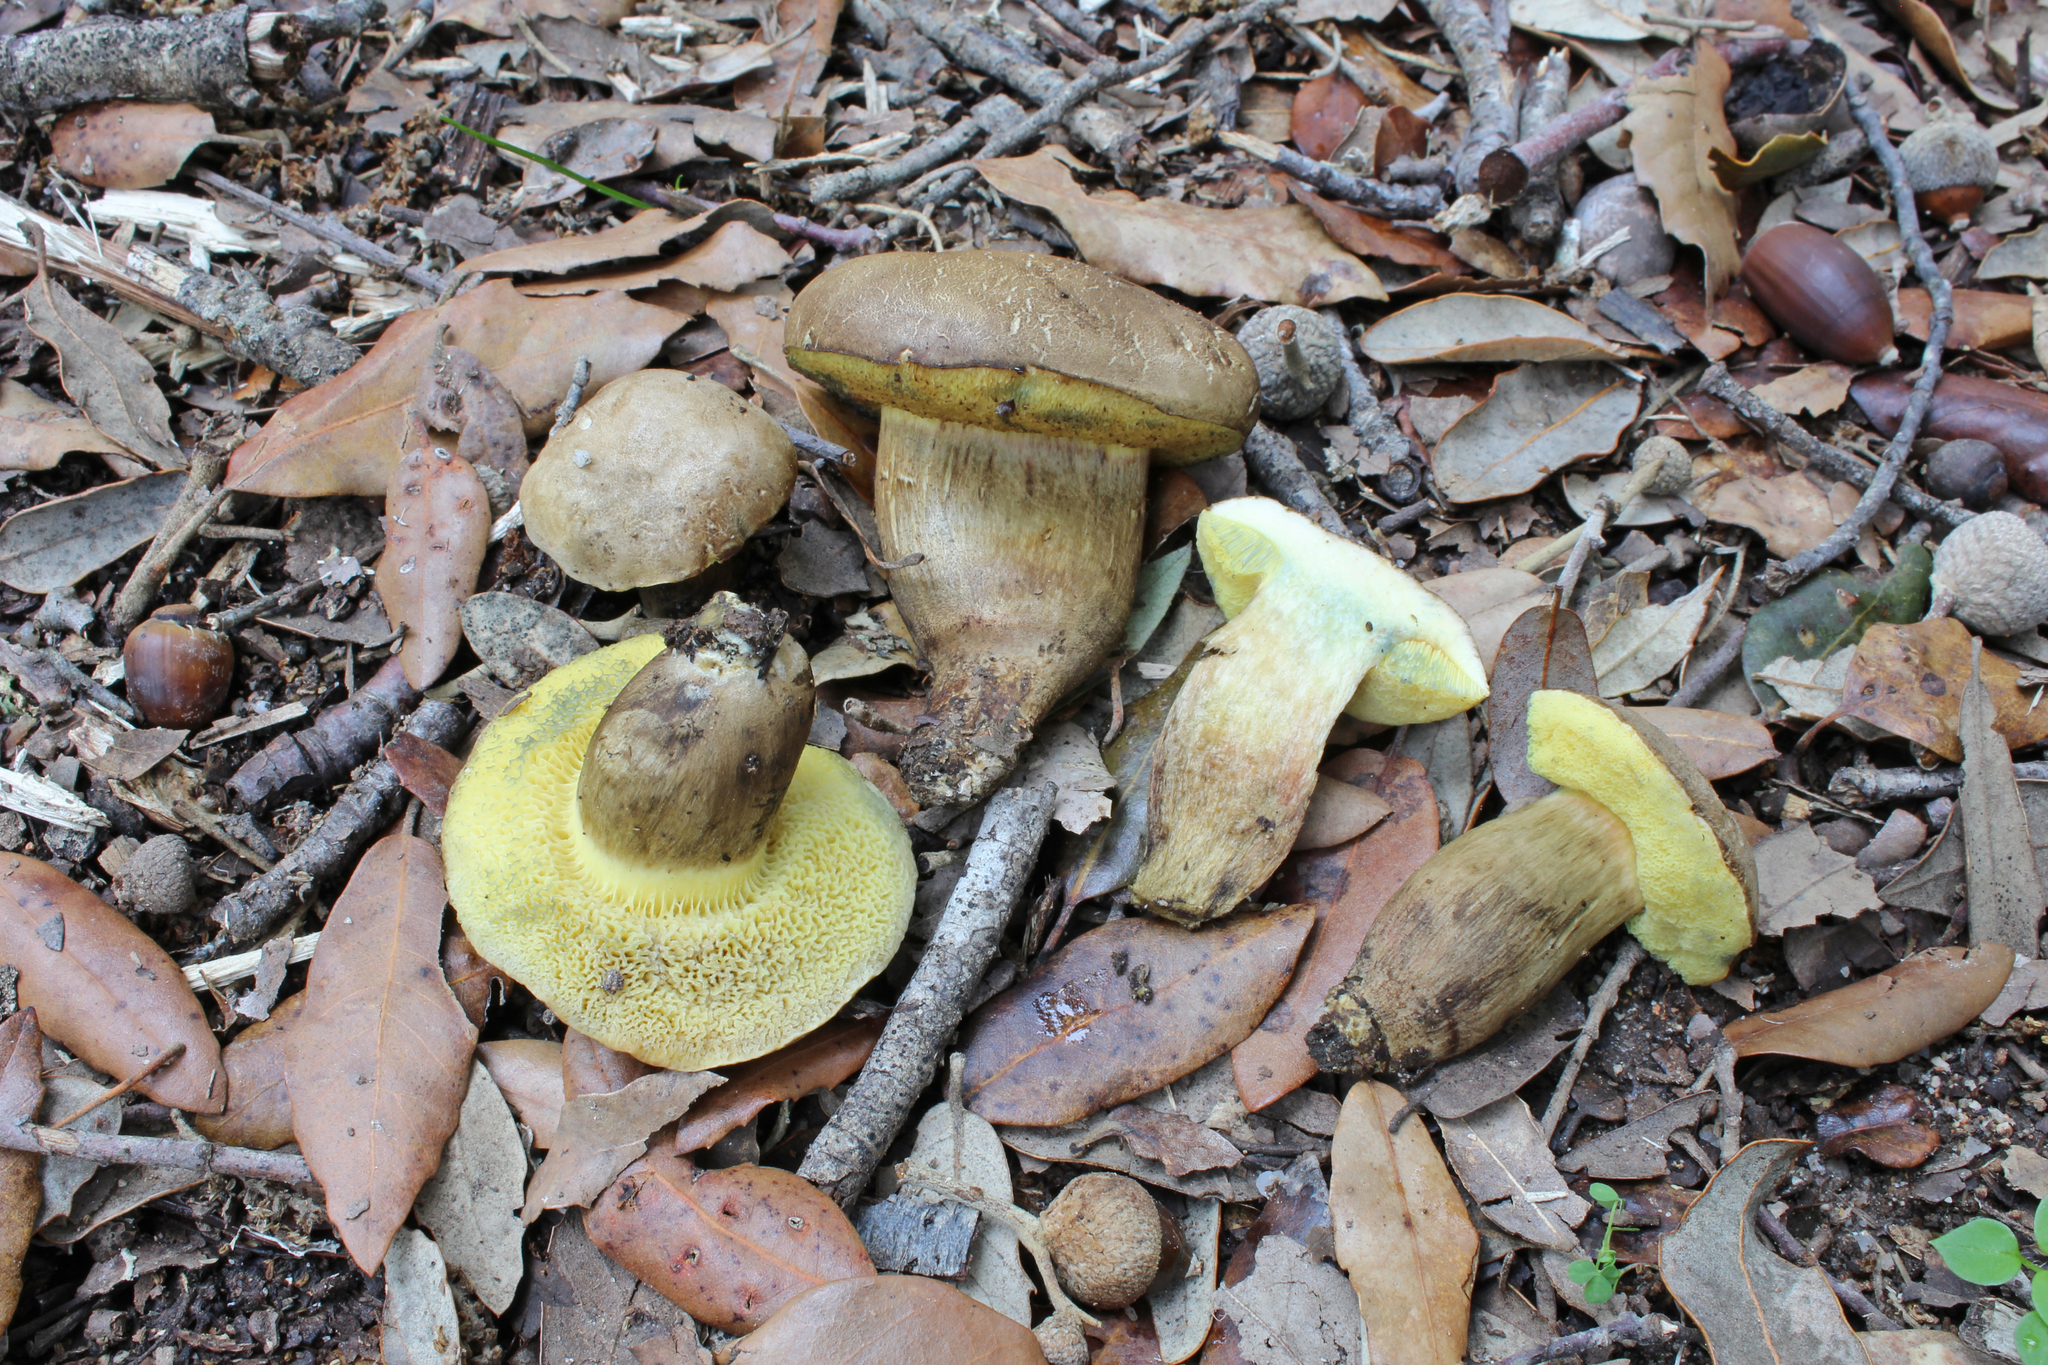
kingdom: Fungi
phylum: Basidiomycota
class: Agaricomycetes
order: Boletales
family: Boletaceae
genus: Xerocomellus
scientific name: Xerocomellus porosporus
